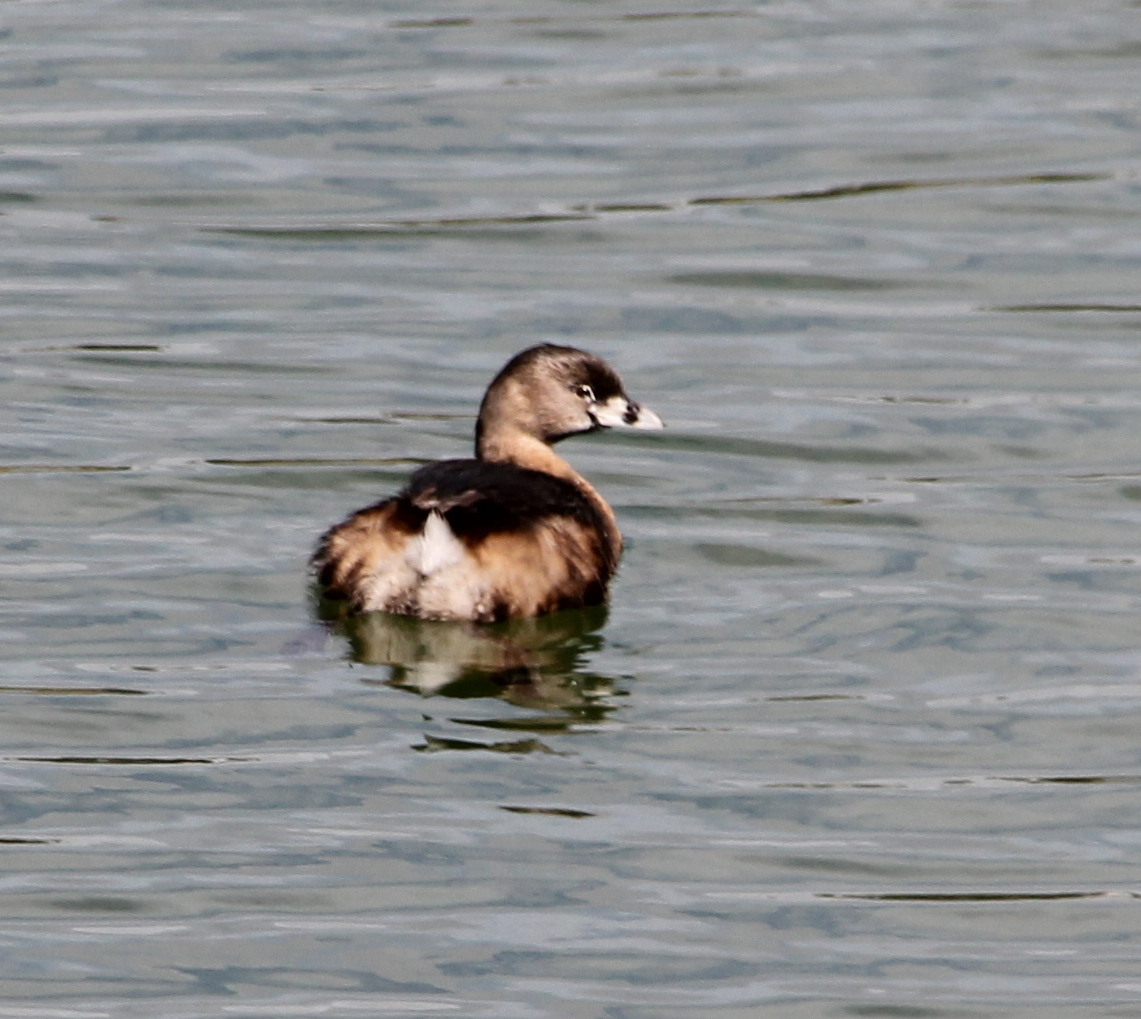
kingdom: Animalia
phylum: Chordata
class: Aves
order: Podicipediformes
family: Podicipedidae
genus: Podilymbus
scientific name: Podilymbus podiceps
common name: Pied-billed grebe
